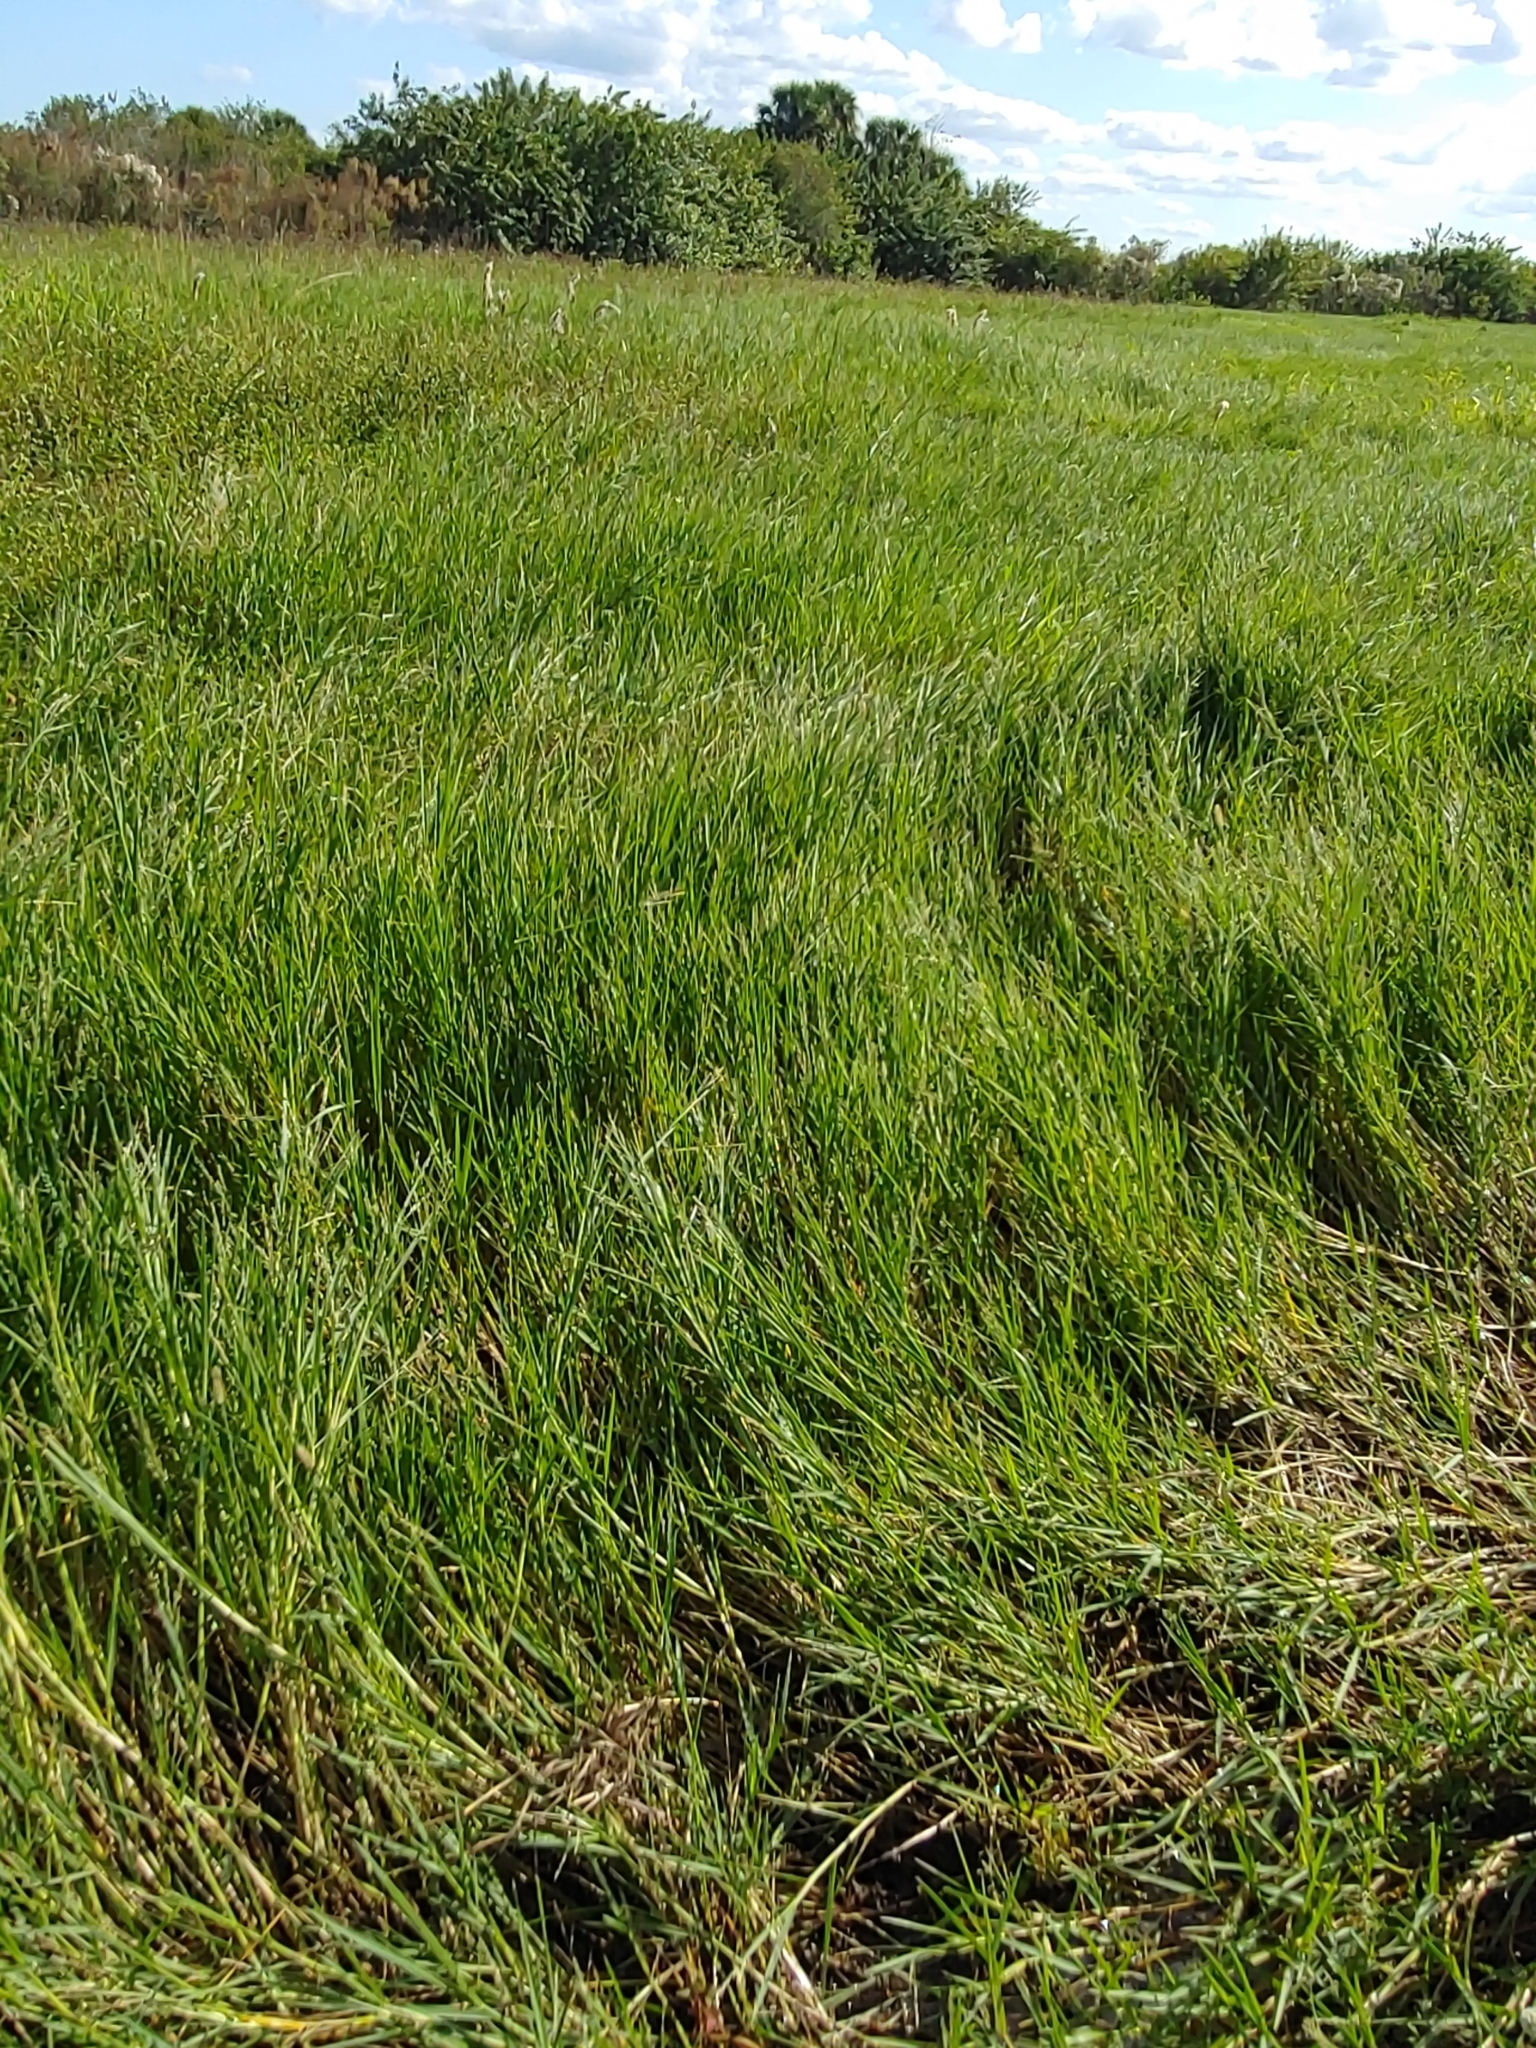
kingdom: Plantae
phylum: Tracheophyta
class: Liliopsida
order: Poales
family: Poaceae
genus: Panicum
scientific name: Panicum repens
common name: Torpedo grass
